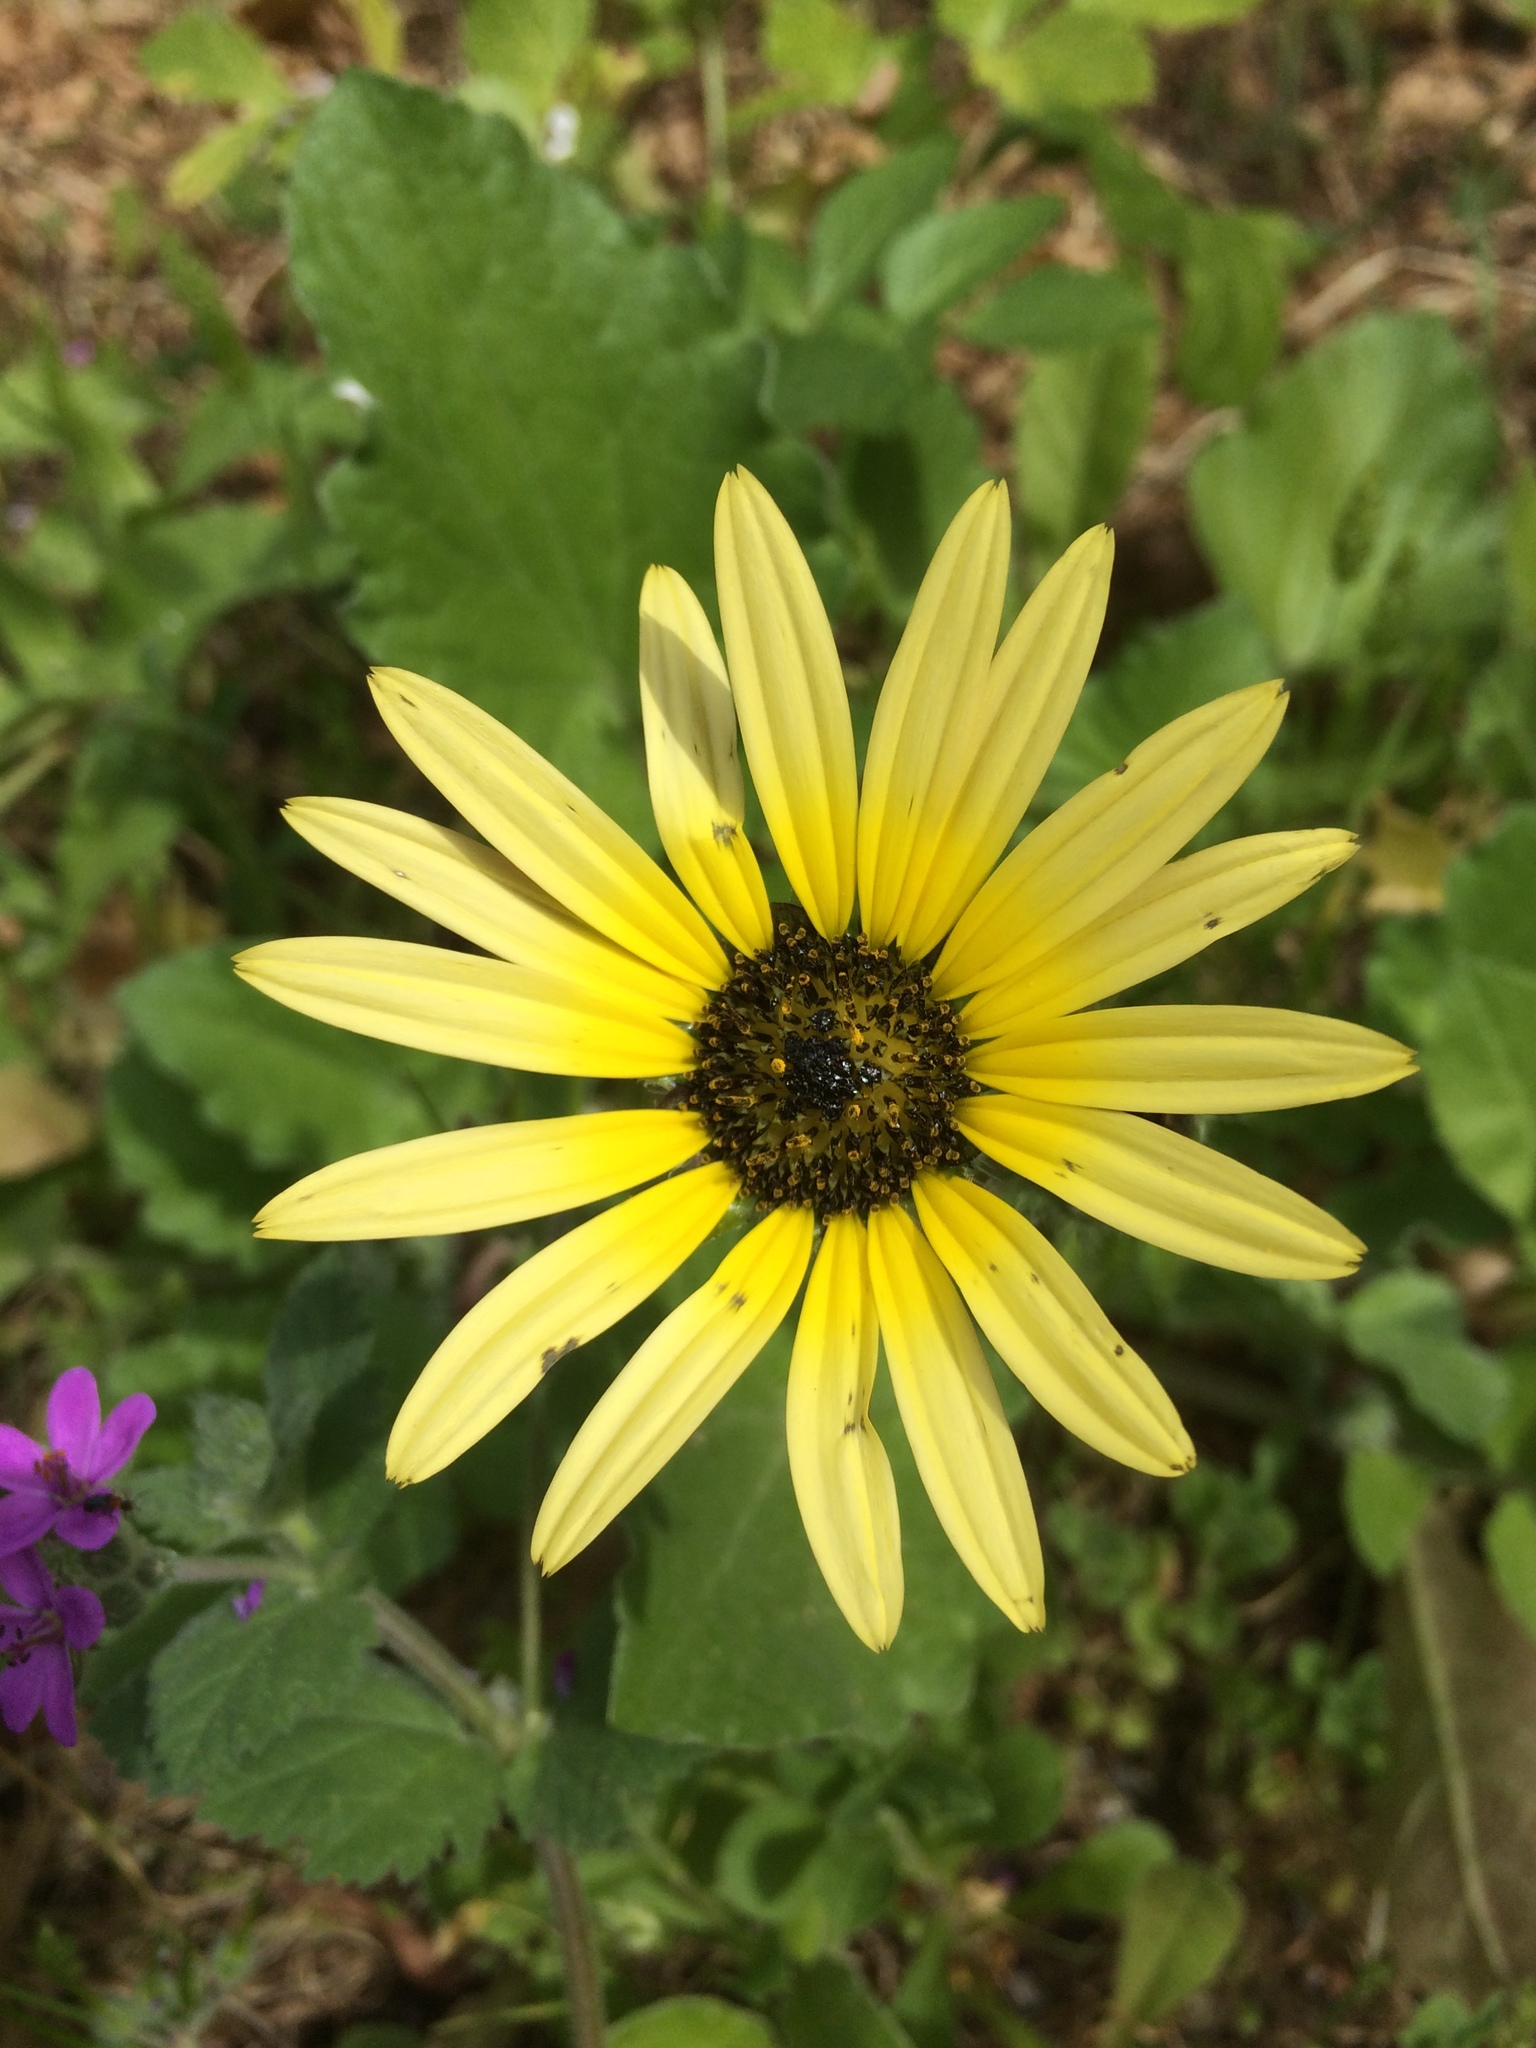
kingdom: Plantae
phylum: Tracheophyta
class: Magnoliopsida
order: Asterales
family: Asteraceae
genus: Arctotheca
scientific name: Arctotheca calendula
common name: Capeweed
